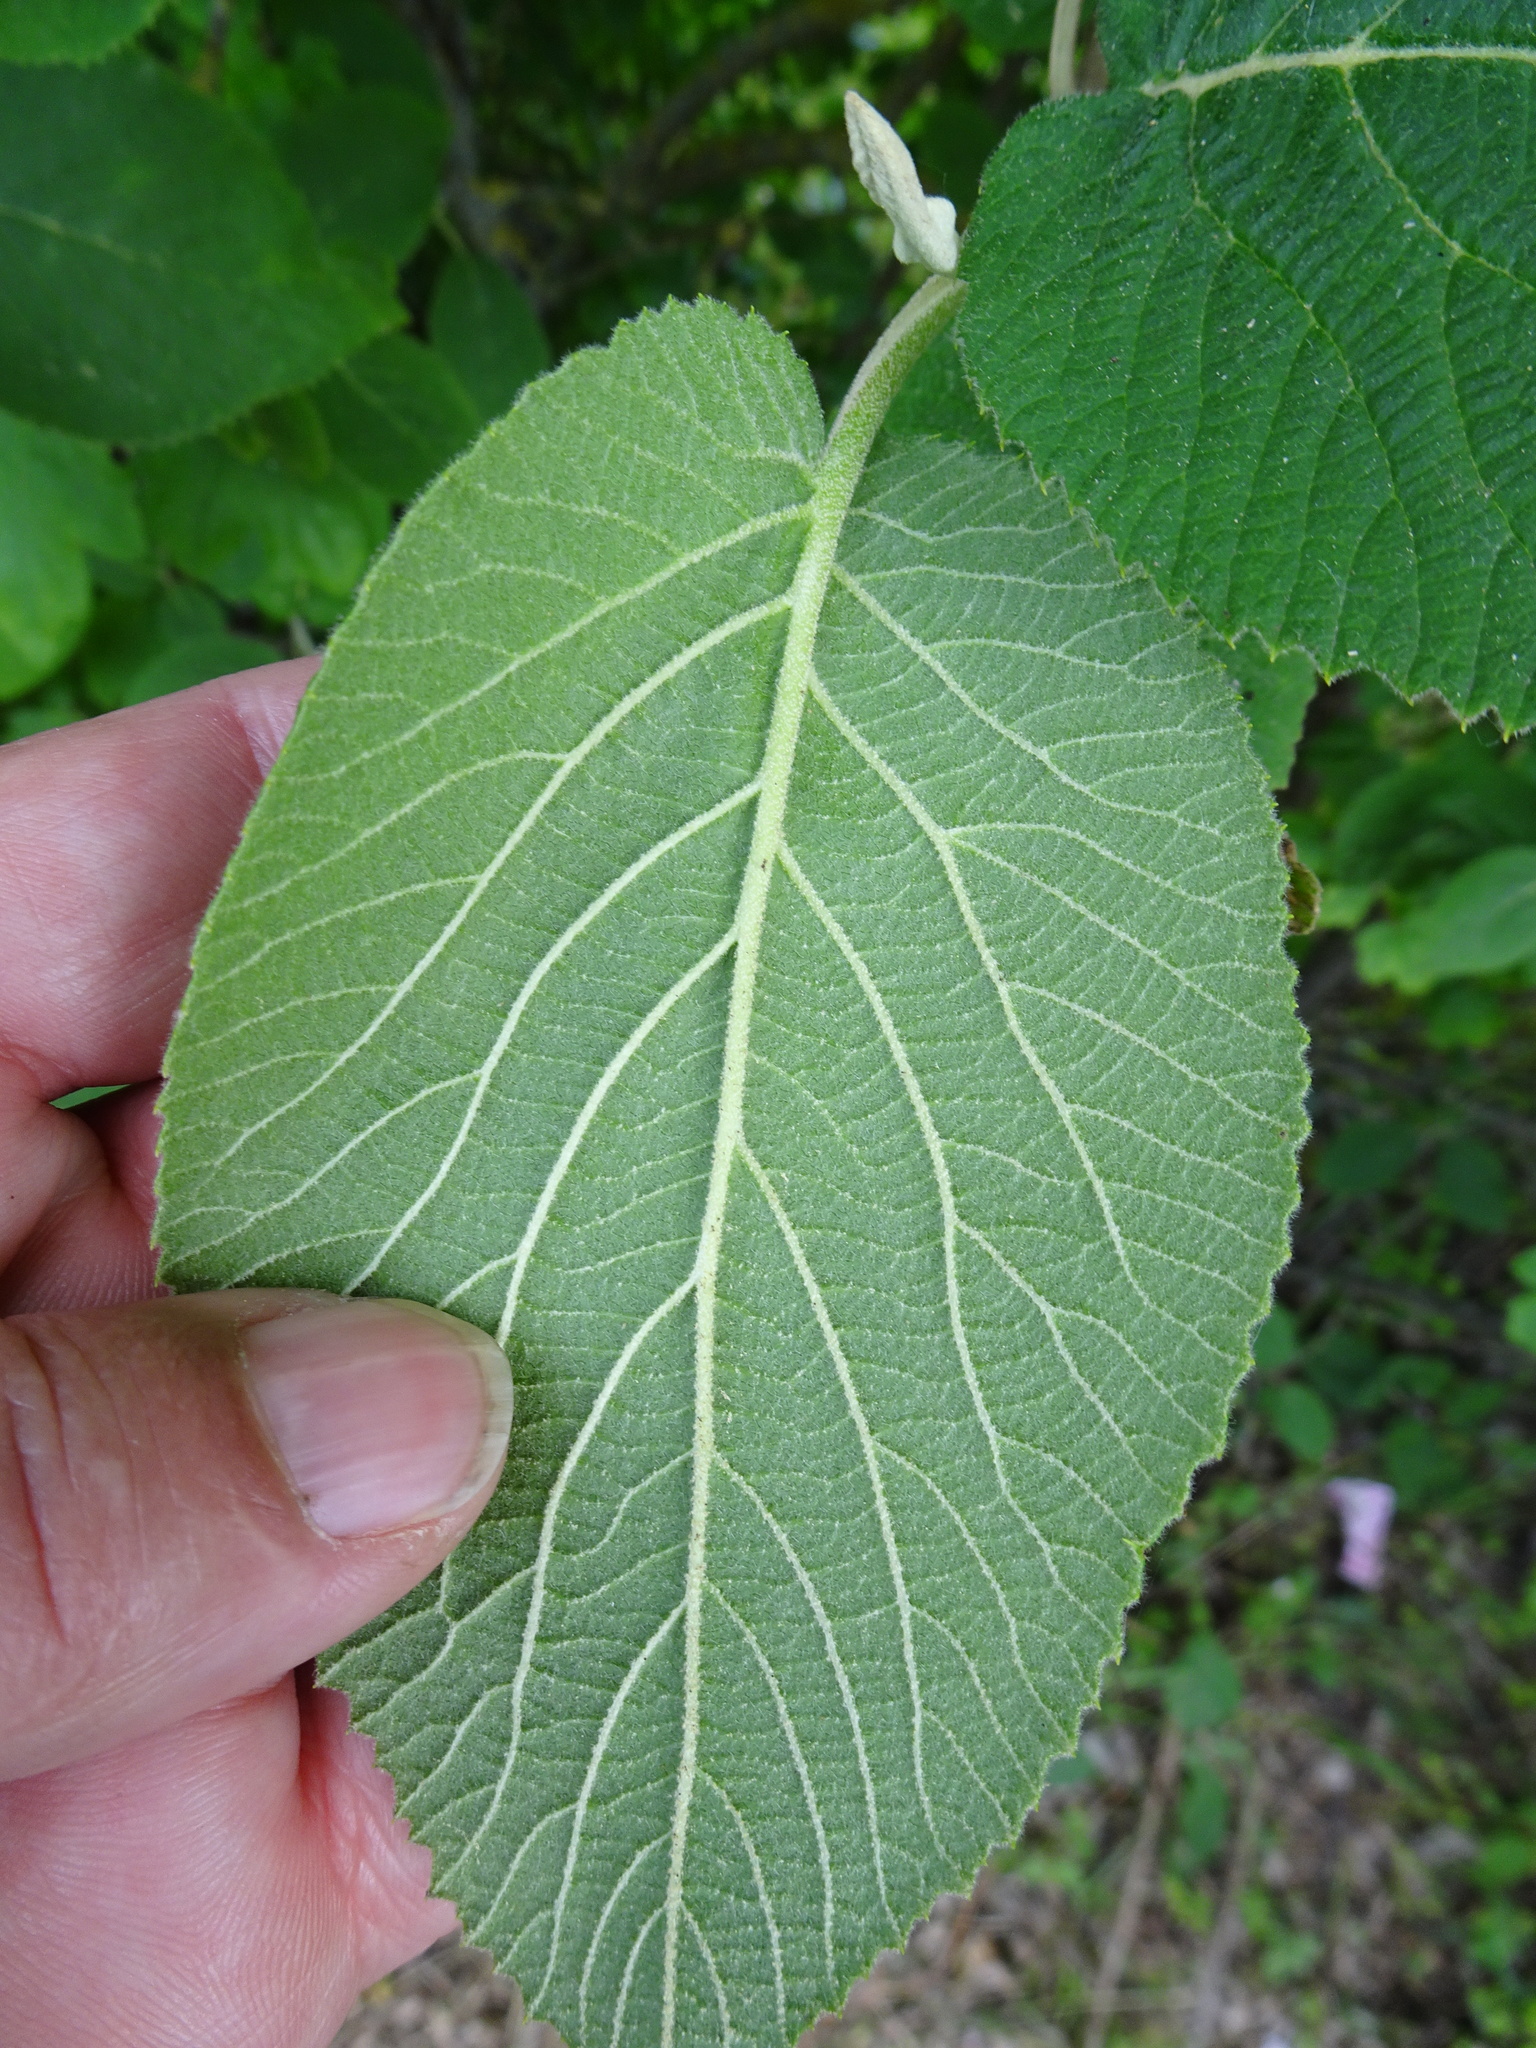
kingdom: Plantae
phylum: Tracheophyta
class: Magnoliopsida
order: Dipsacales
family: Viburnaceae
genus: Viburnum
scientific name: Viburnum lantana
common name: Wayfaring tree
